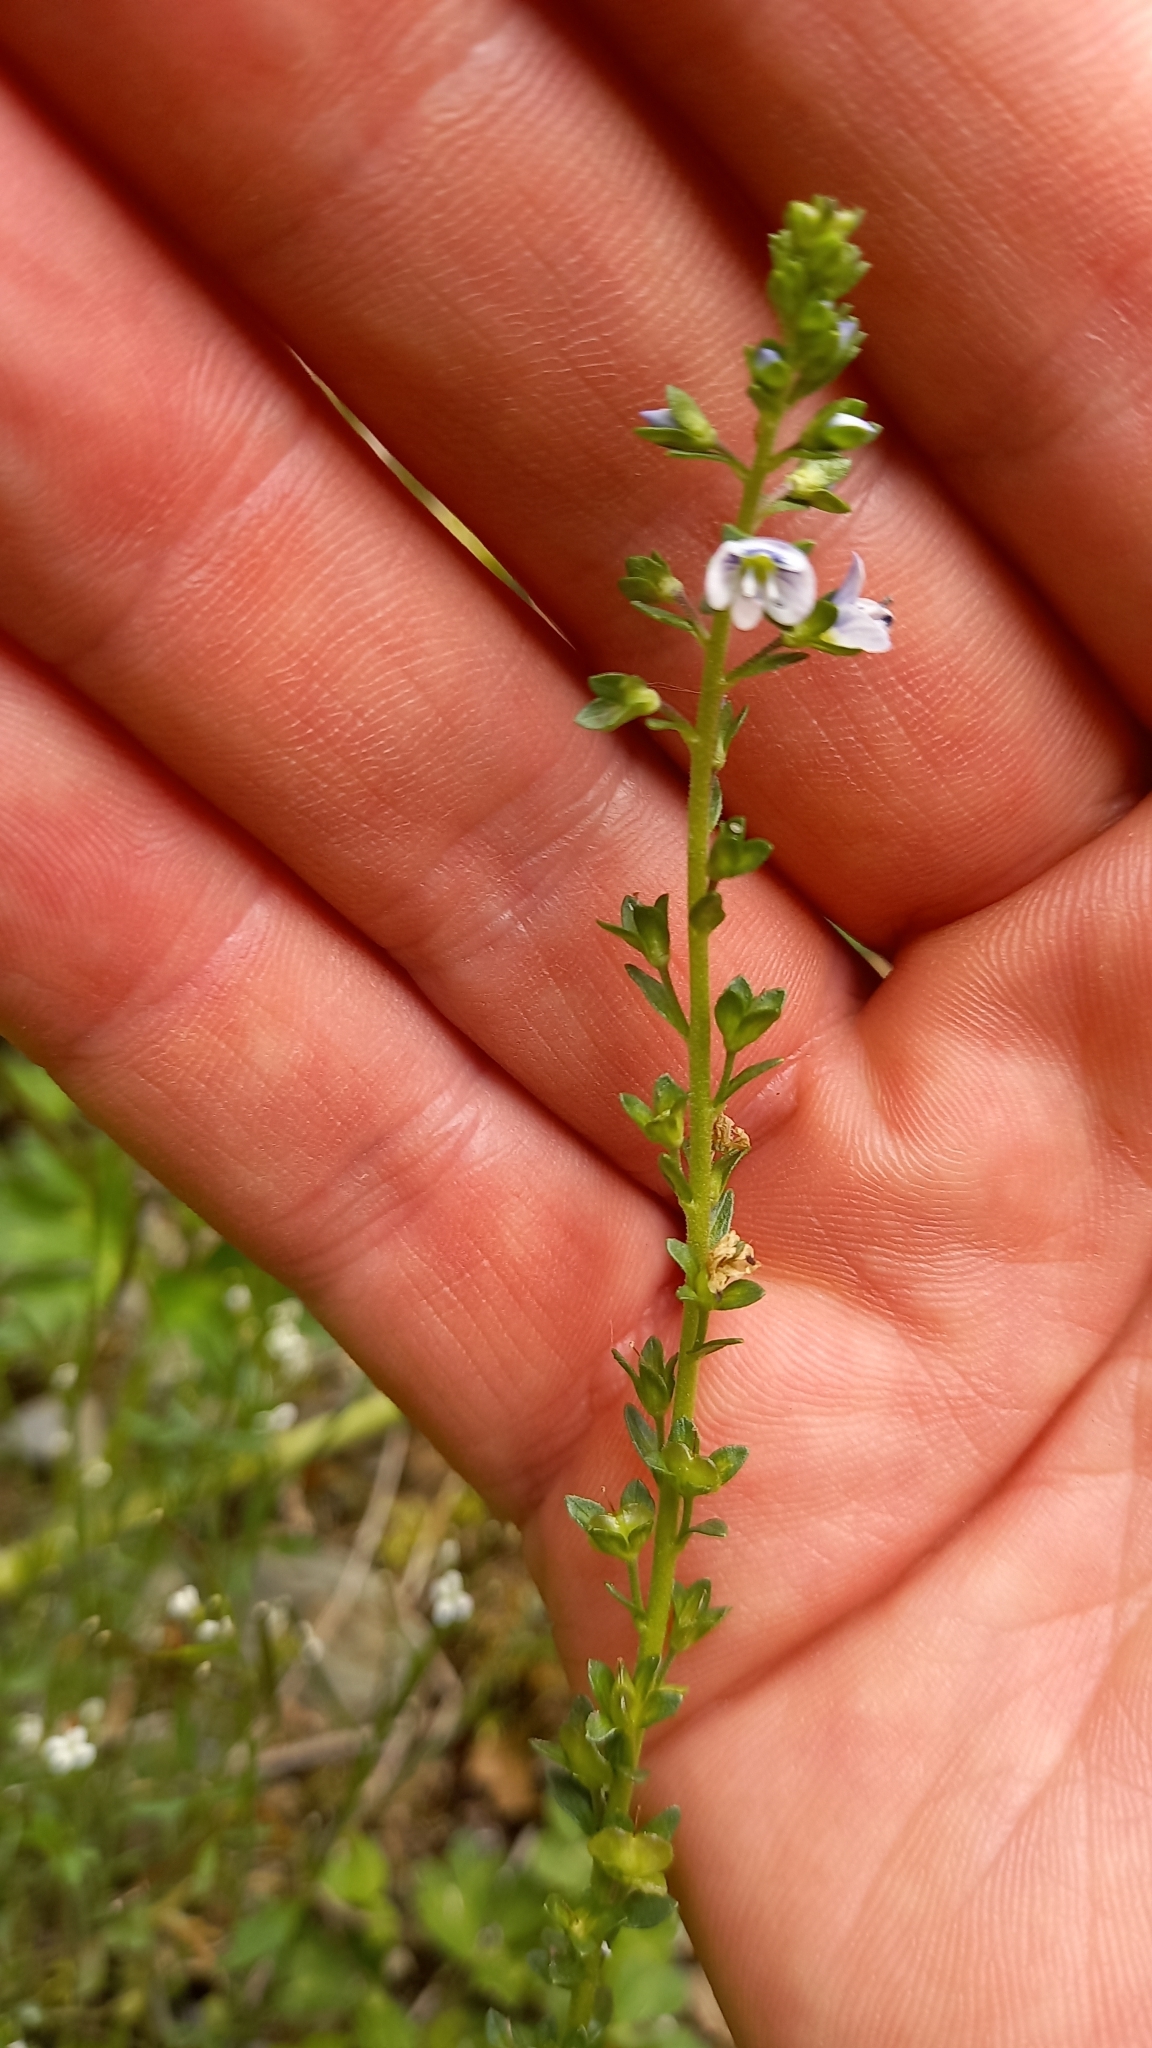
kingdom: Plantae
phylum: Tracheophyta
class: Magnoliopsida
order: Lamiales
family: Plantaginaceae
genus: Veronica
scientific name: Veronica serpyllifolia
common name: Thyme-leaved speedwell
